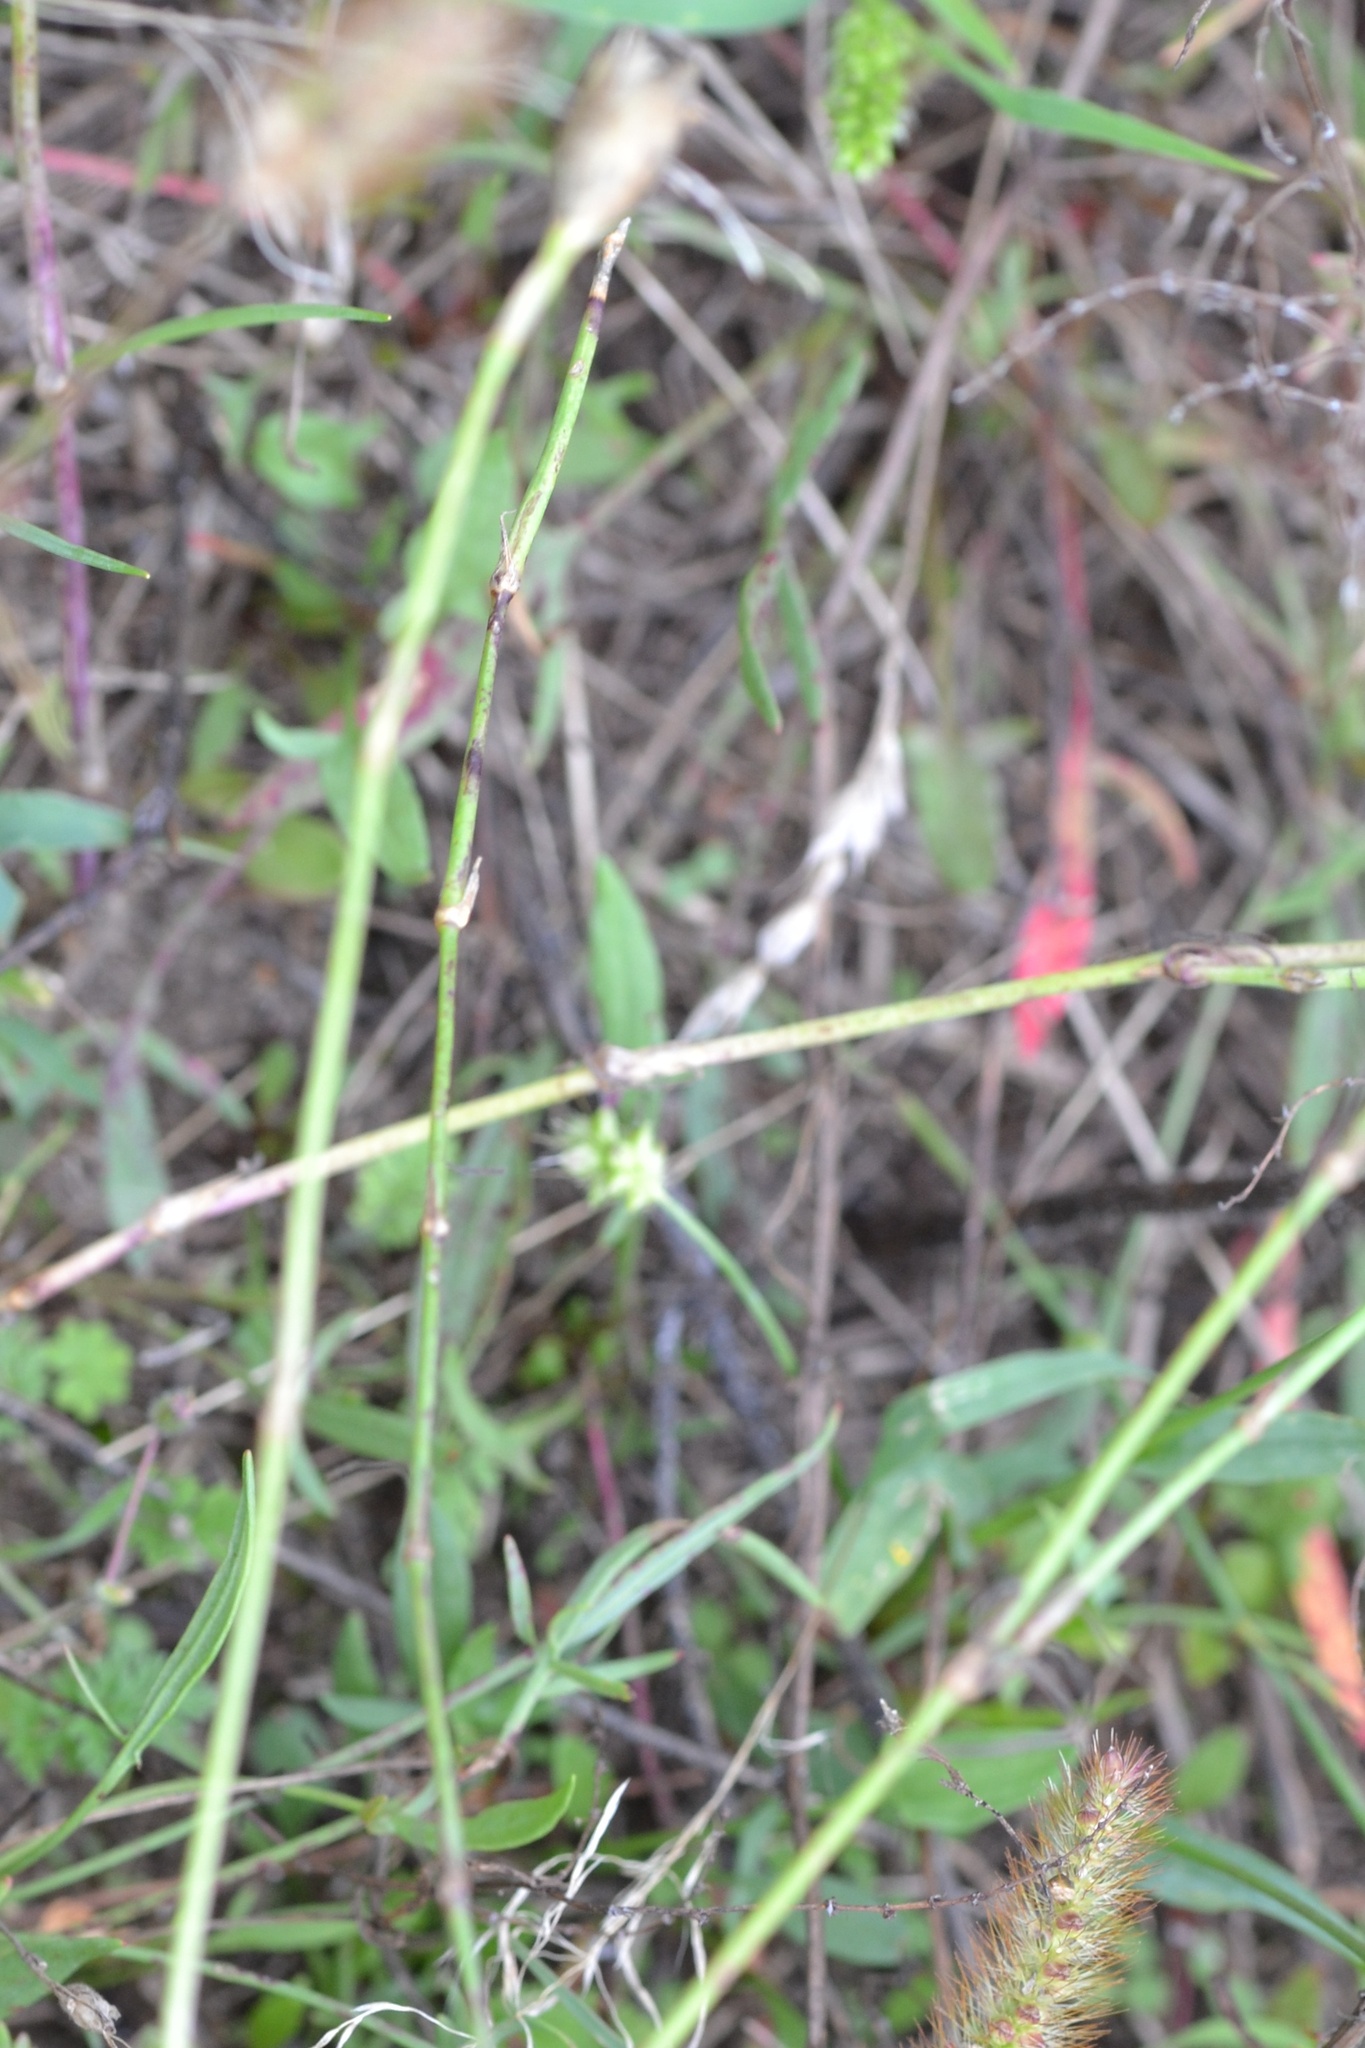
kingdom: Plantae
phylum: Tracheophyta
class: Magnoliopsida
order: Caryophyllales
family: Caryophyllaceae
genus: Petrorhagia
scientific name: Petrorhagia prolifera
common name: Proliferous pink
